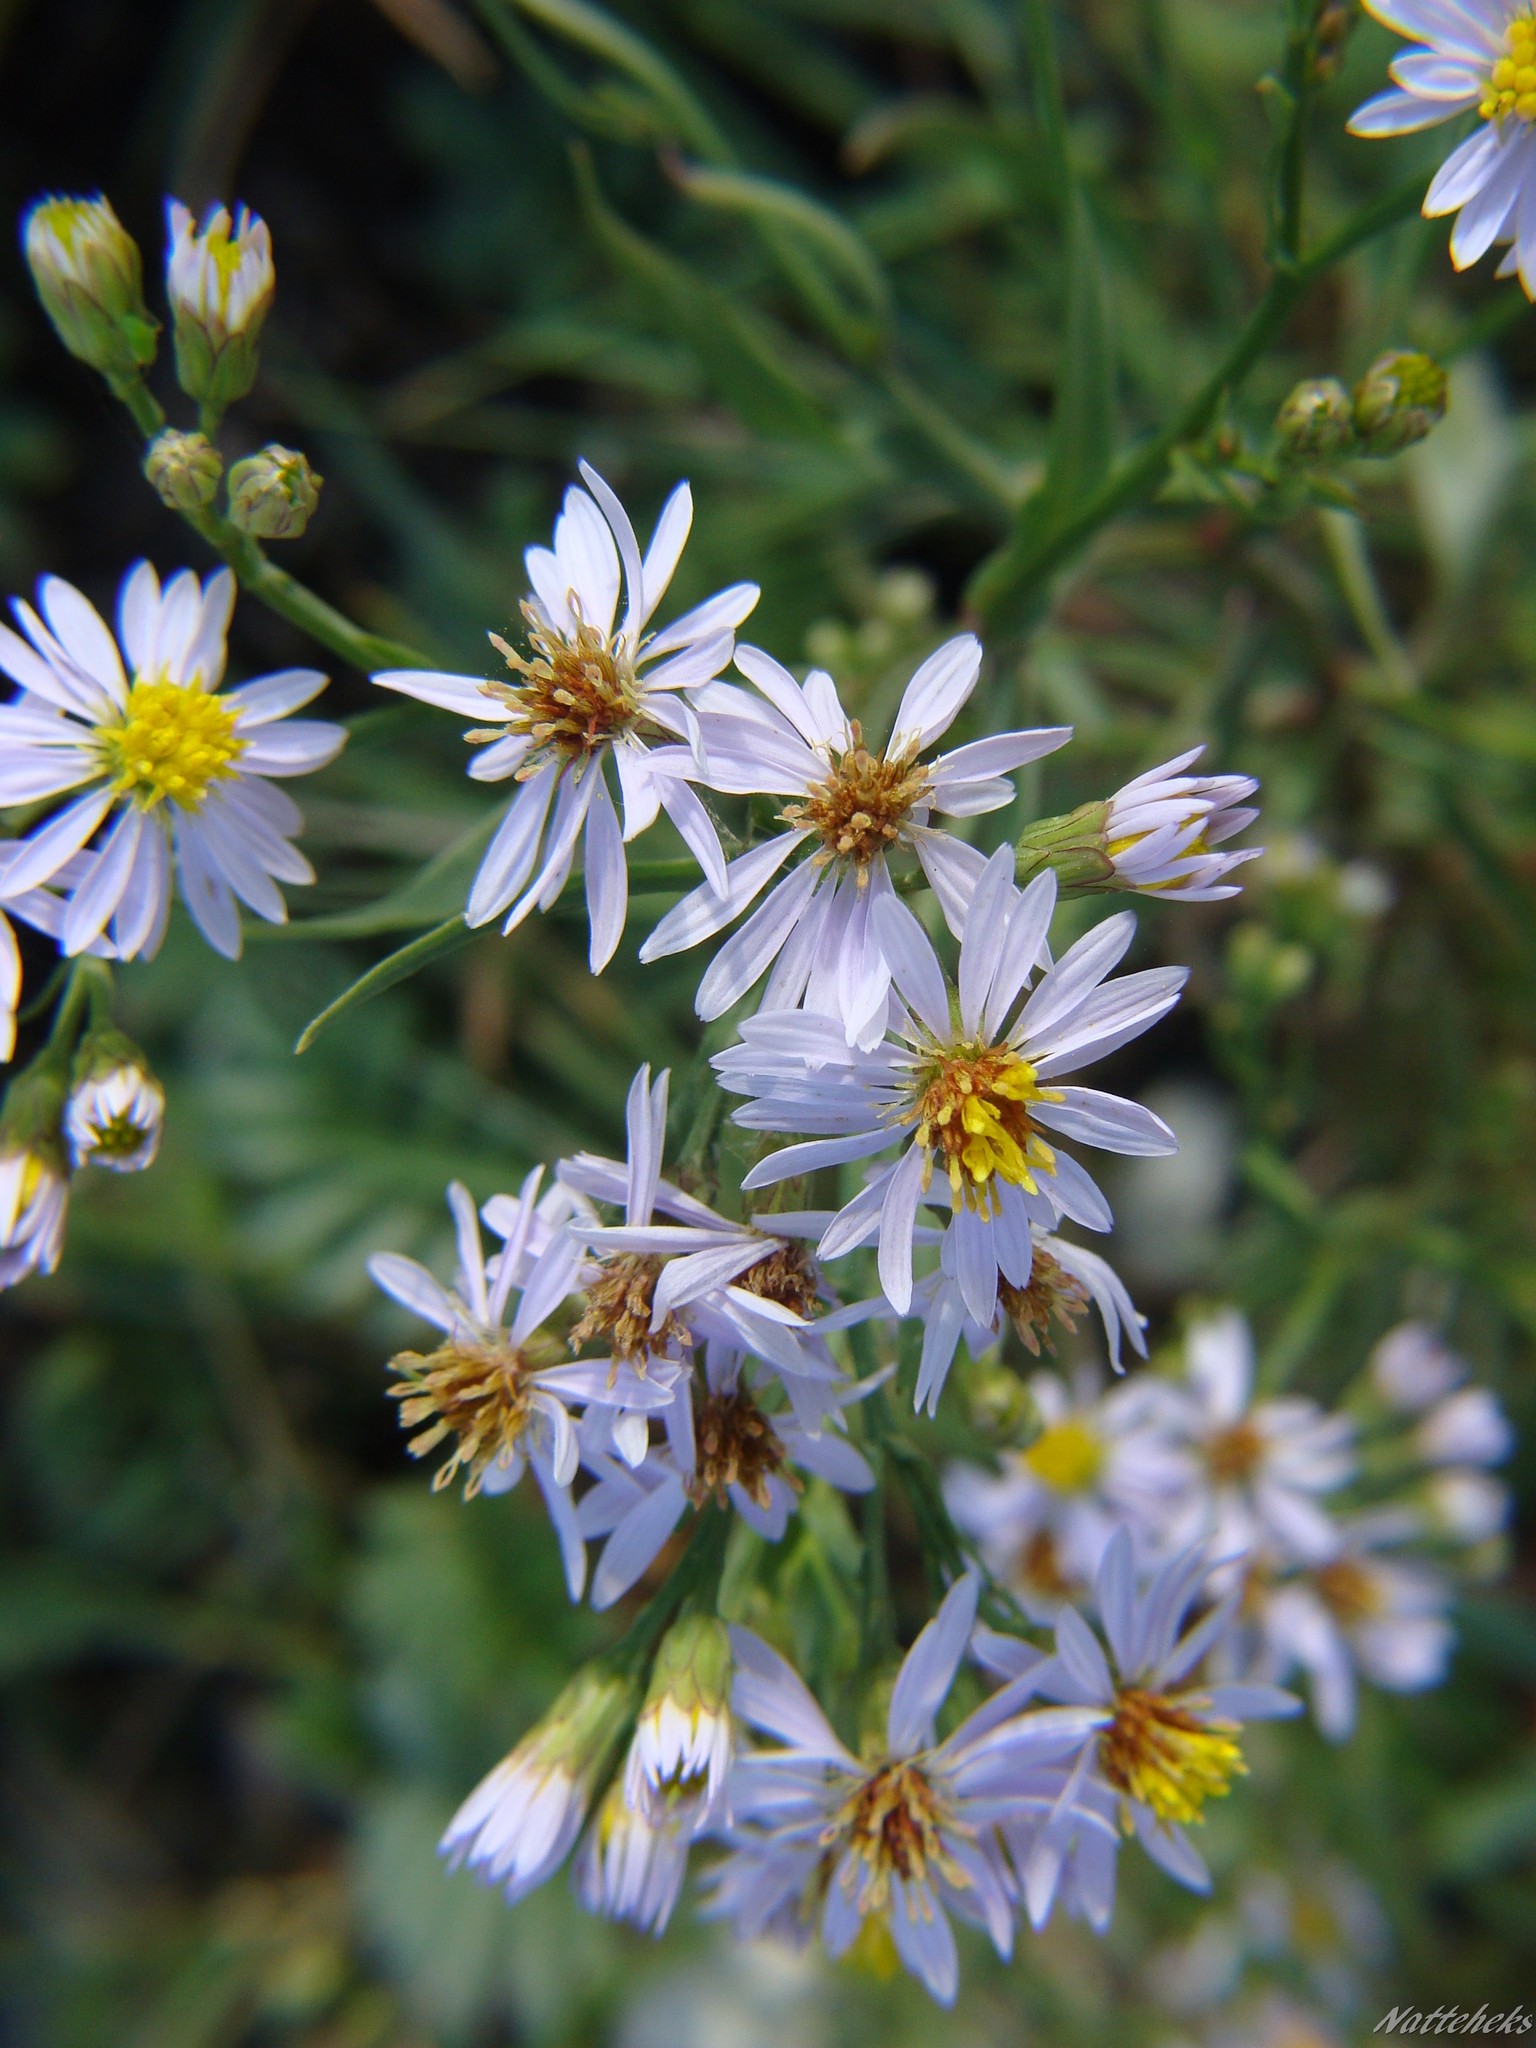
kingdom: Plantae
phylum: Tracheophyta
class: Magnoliopsida
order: Asterales
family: Asteraceae
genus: Tripolium
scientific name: Tripolium pannonicum
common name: Sea aster
